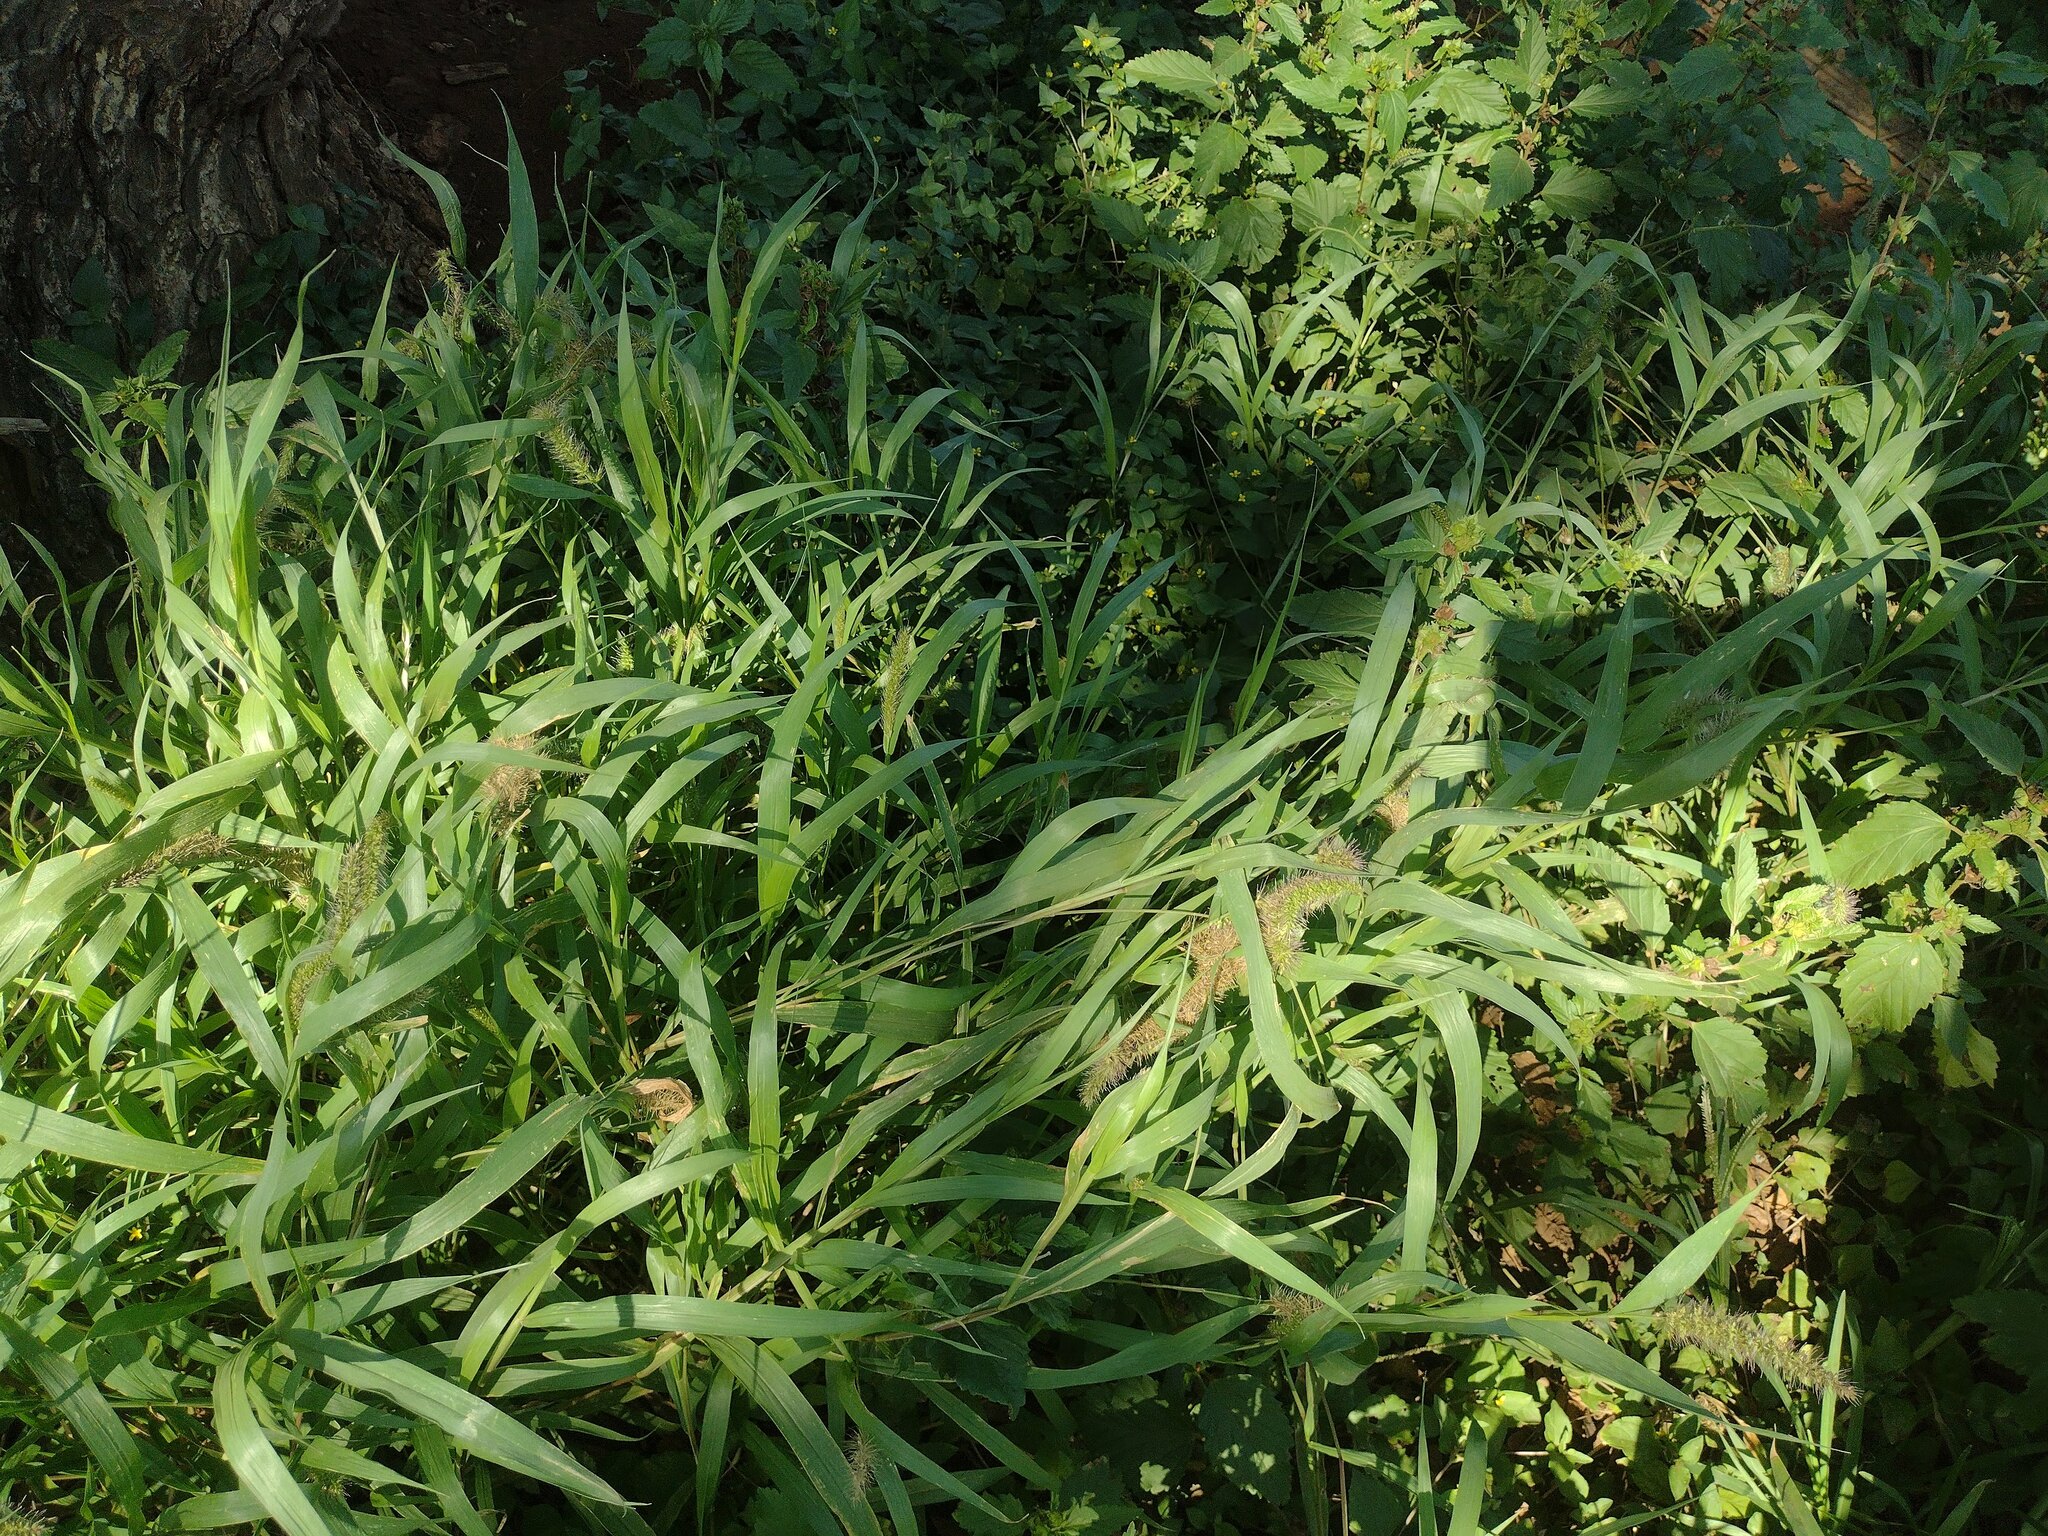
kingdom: Plantae
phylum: Tracheophyta
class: Liliopsida
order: Poales
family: Poaceae
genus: Setaria
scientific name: Setaria adhaerens
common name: Adherent bristle-grass
